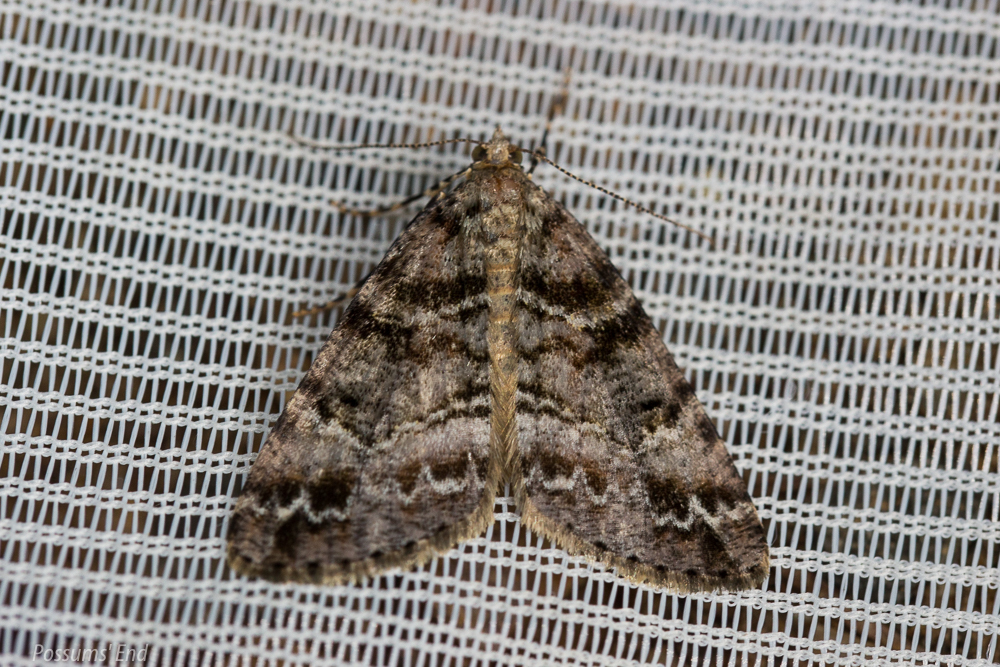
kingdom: Animalia
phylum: Arthropoda
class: Insecta
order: Lepidoptera
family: Geometridae
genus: Pseudocoremia
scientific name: Pseudocoremia productata
